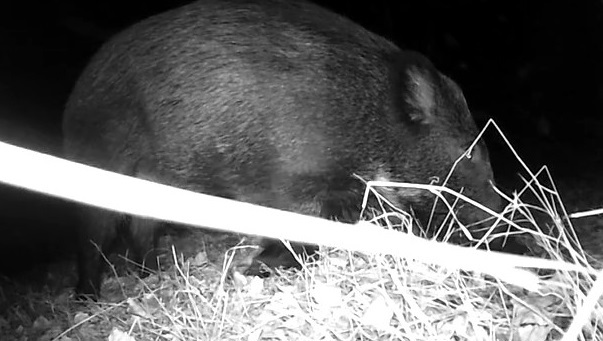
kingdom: Animalia
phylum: Chordata
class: Mammalia
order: Artiodactyla
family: Suidae
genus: Sus
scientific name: Sus scrofa
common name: Wild boar
